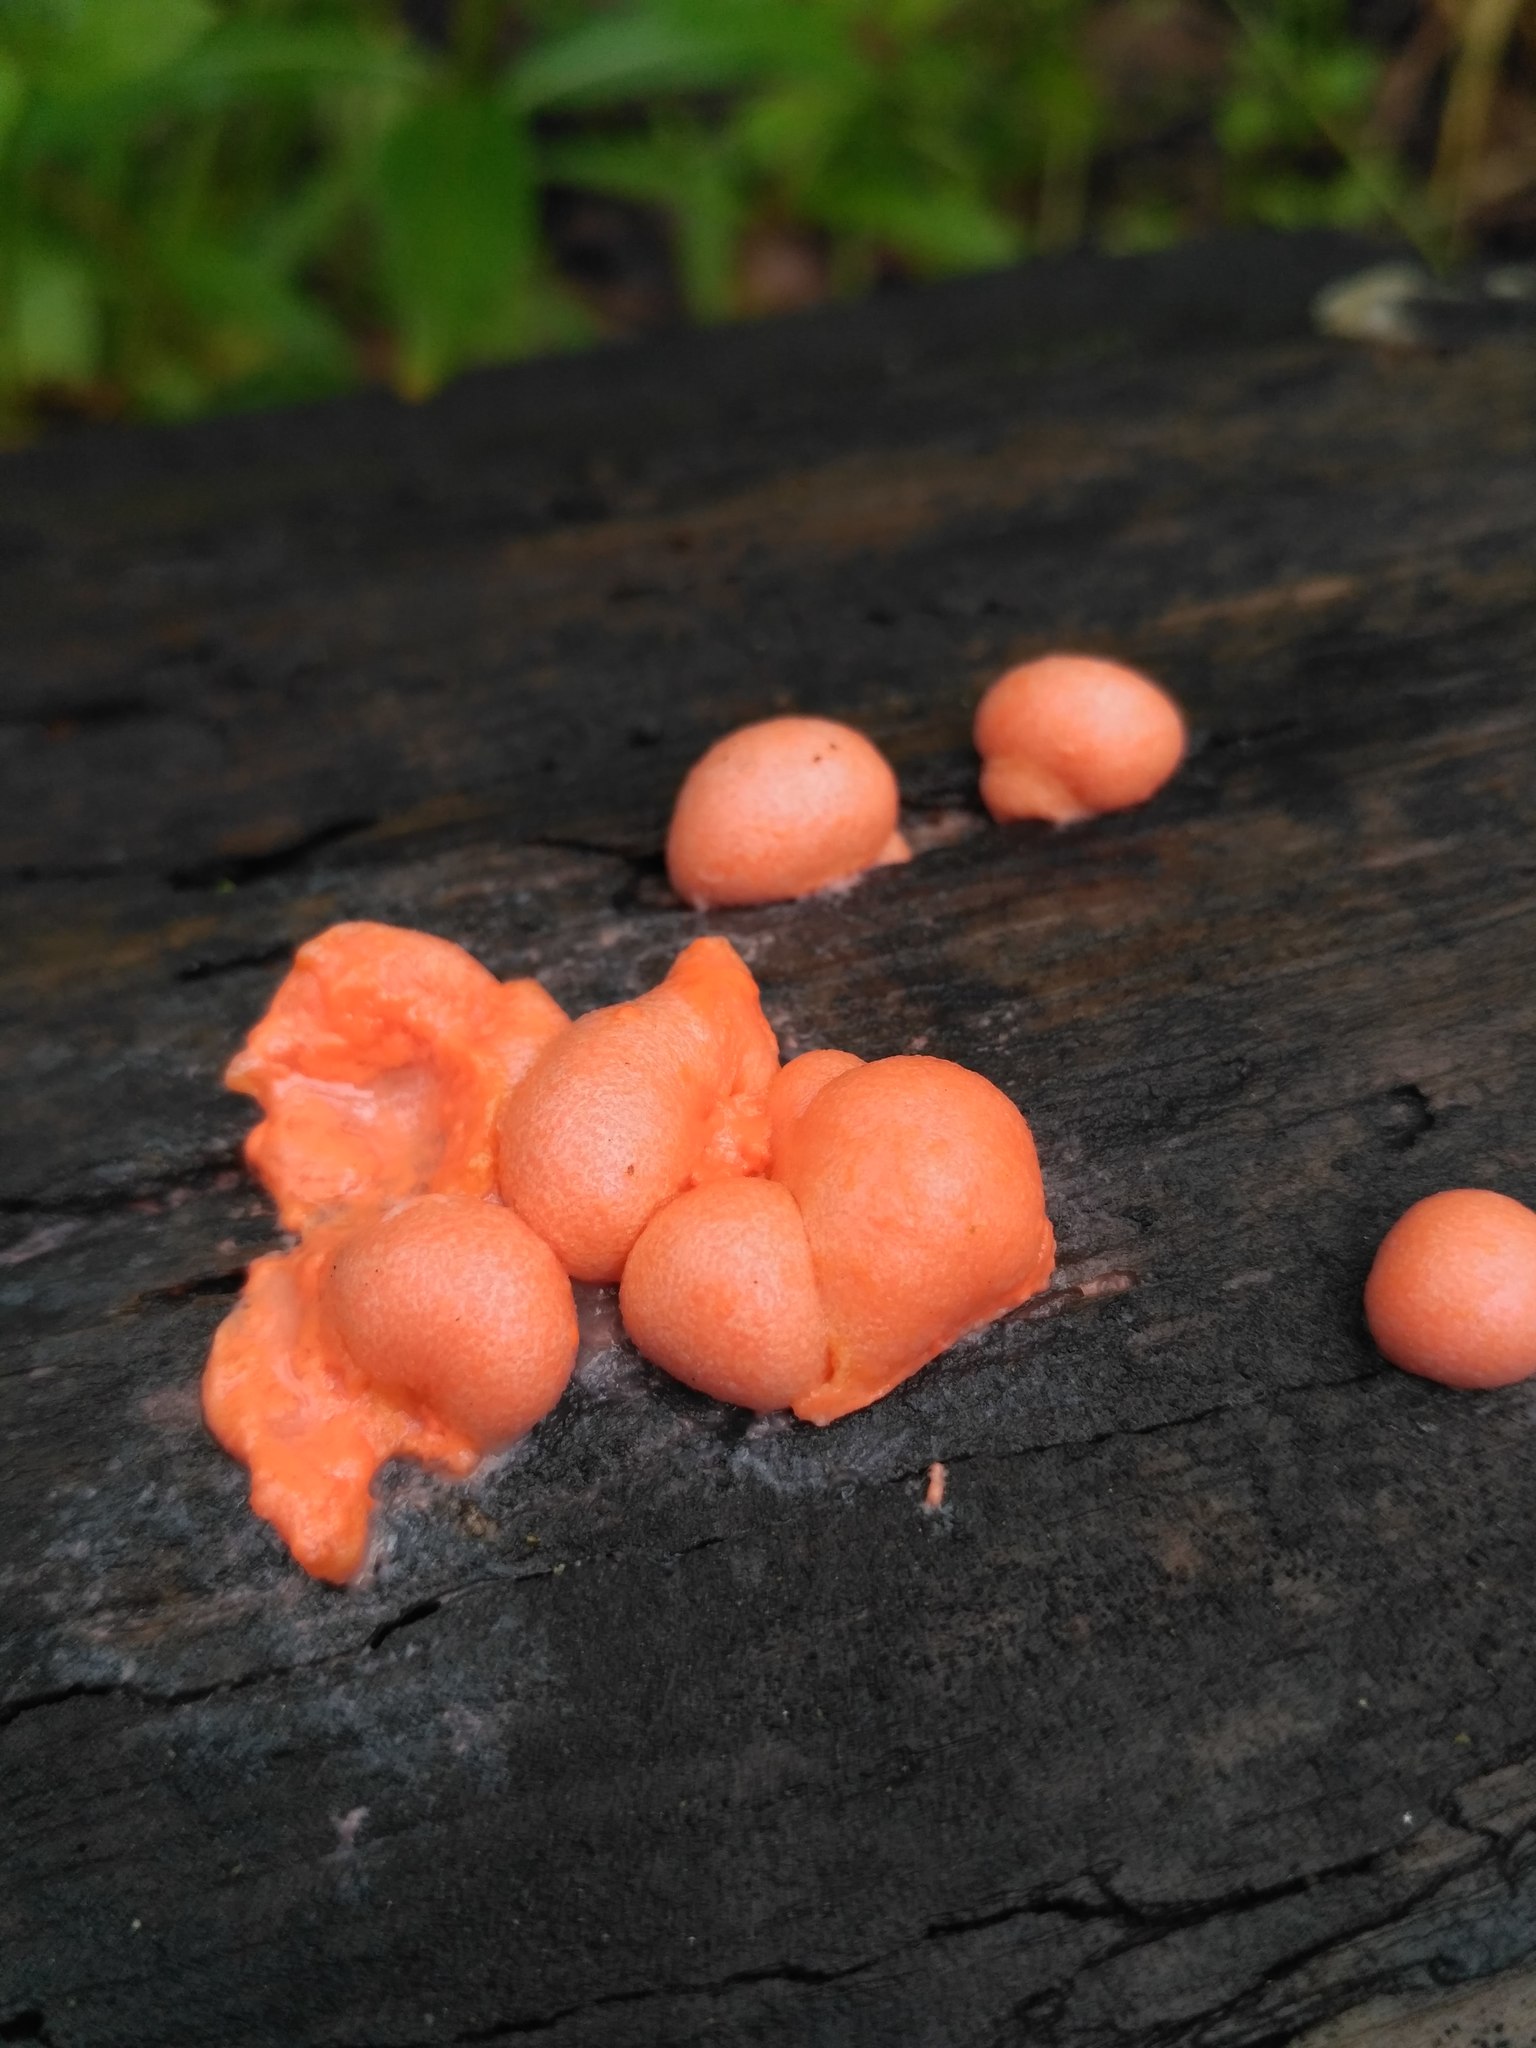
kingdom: Protozoa
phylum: Mycetozoa
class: Myxomycetes
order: Cribrariales
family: Tubiferaceae
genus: Lycogala
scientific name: Lycogala epidendrum
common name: Wolf's milk
